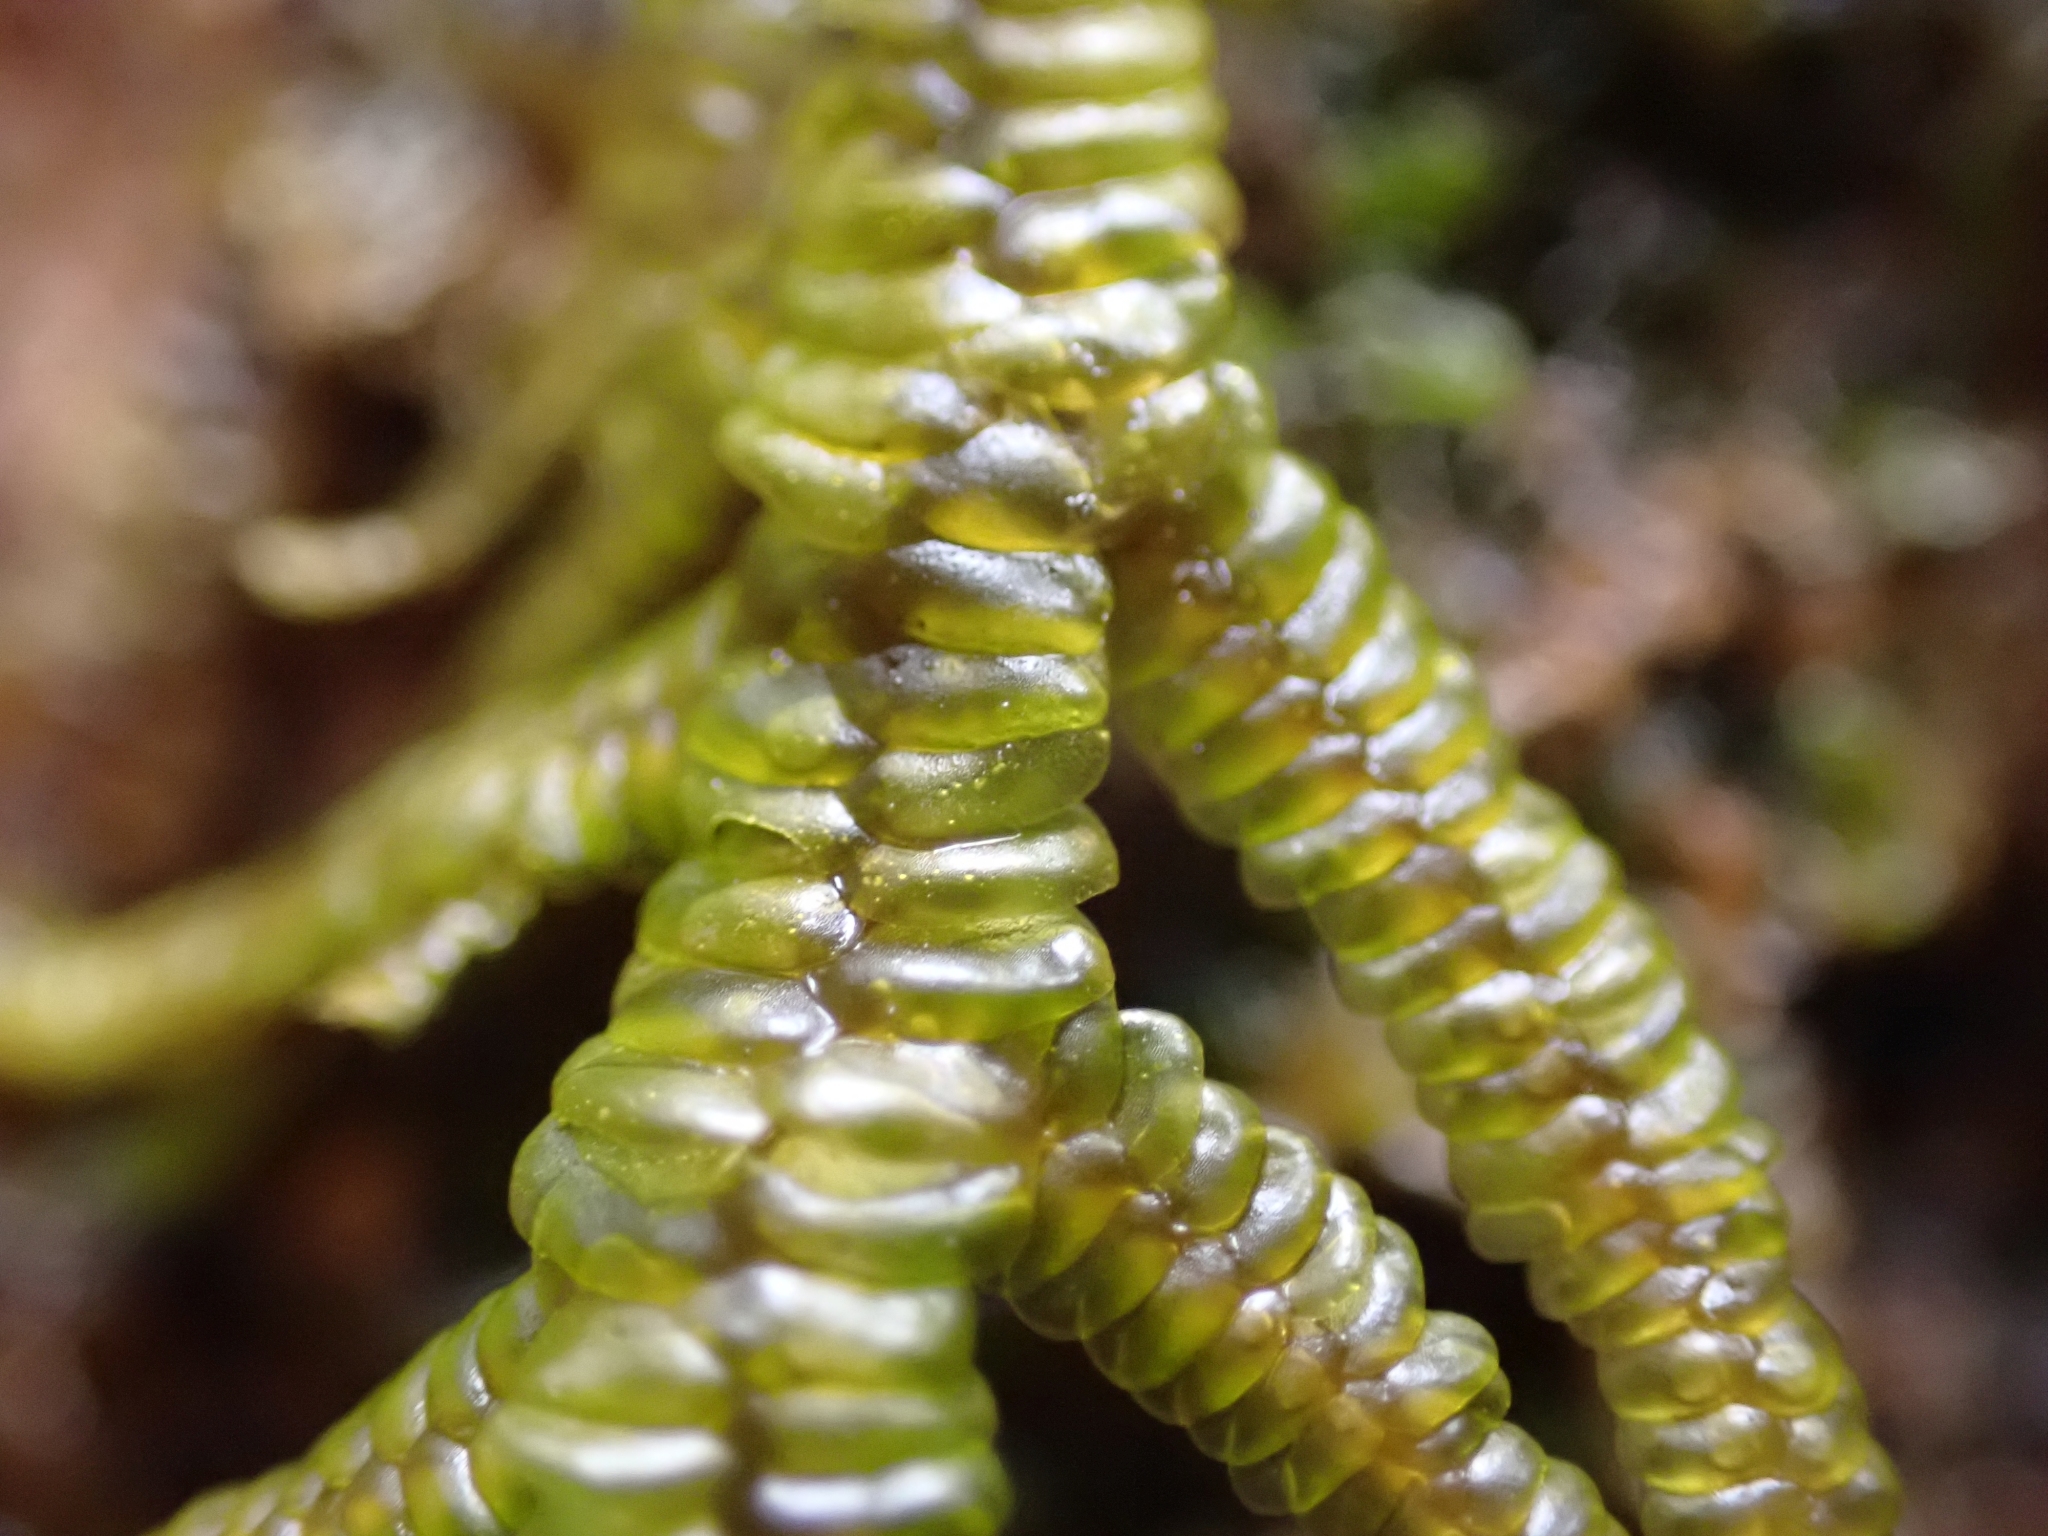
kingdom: Plantae
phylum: Marchantiophyta
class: Jungermanniopsida
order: Porellales
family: Porellaceae
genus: Porella
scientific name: Porella navicularis
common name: Tree ruffle liverwort
